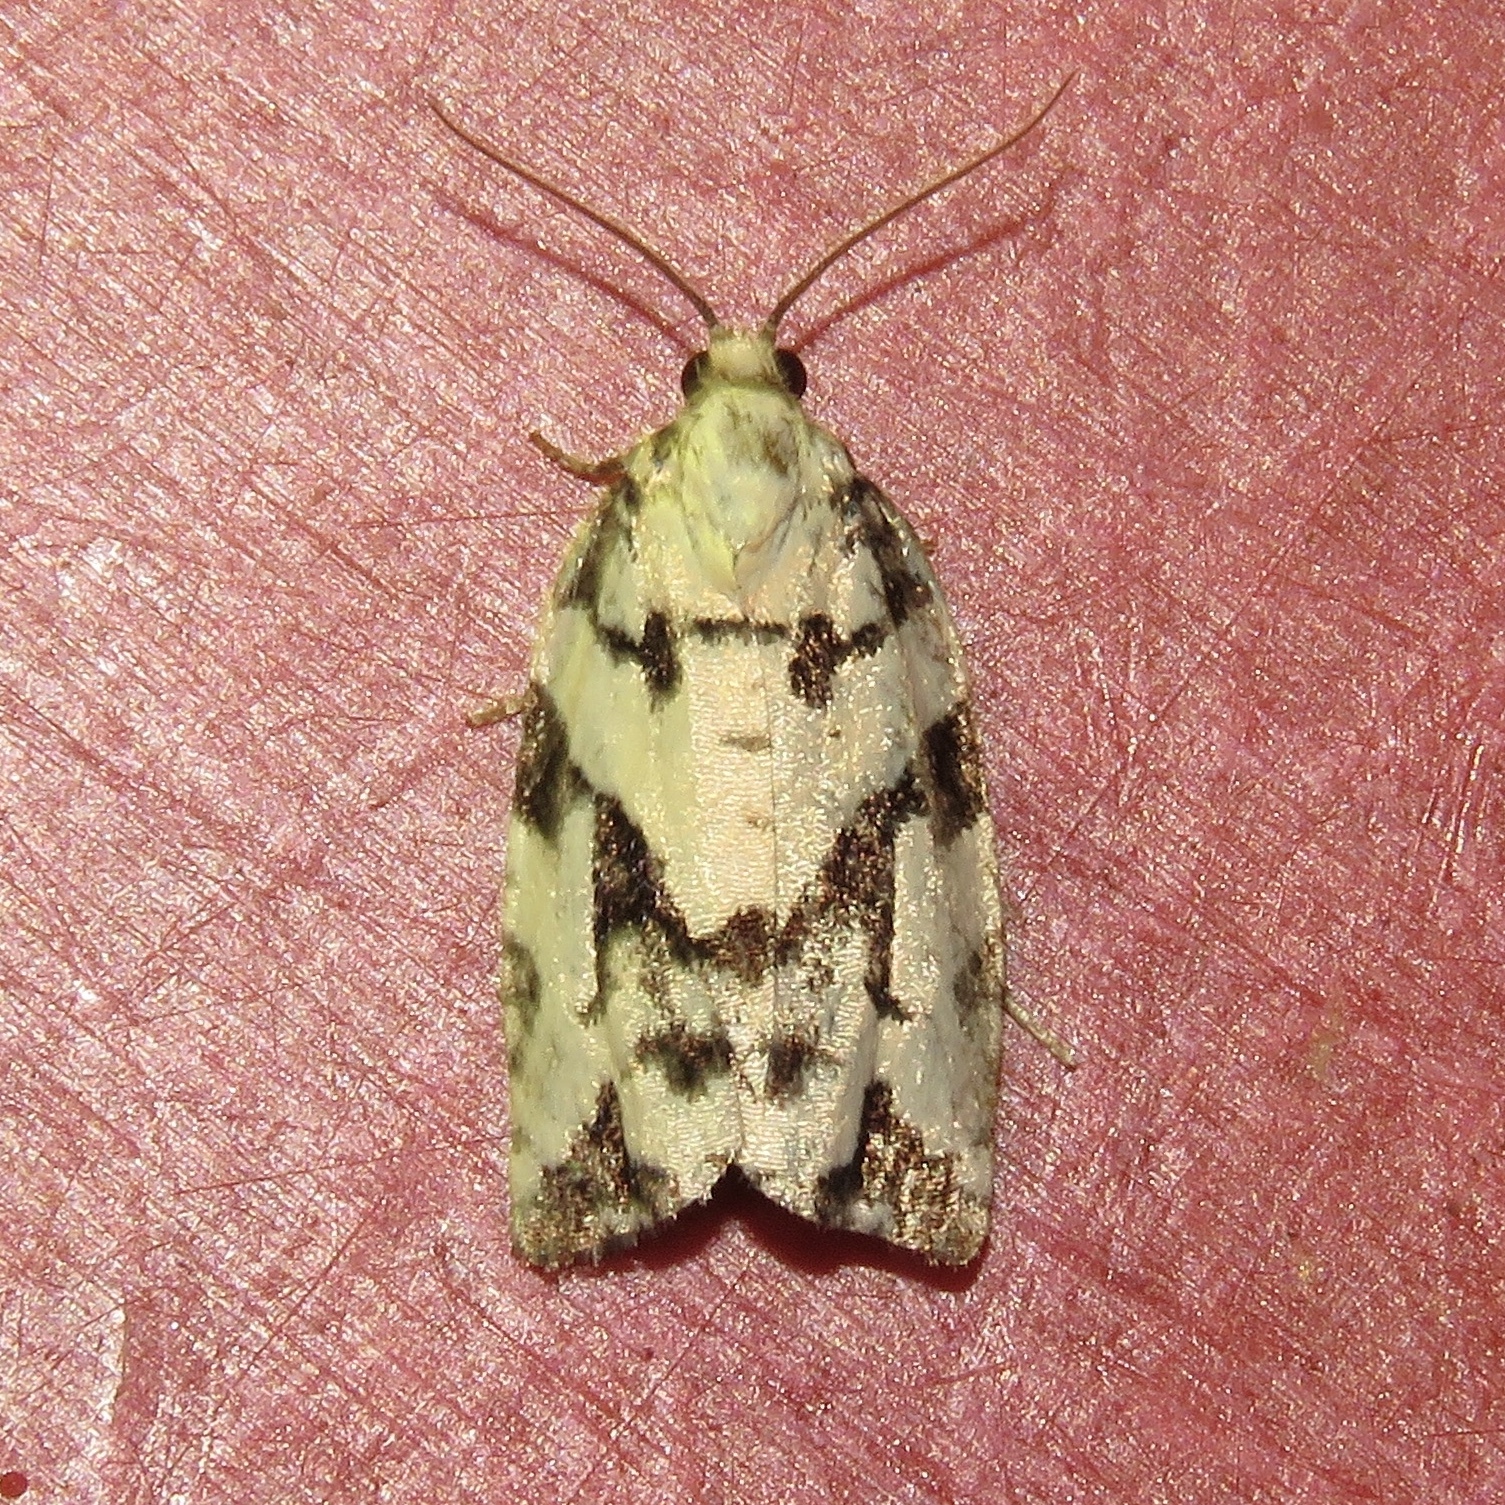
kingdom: Animalia
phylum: Arthropoda
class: Insecta
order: Lepidoptera
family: Tortricidae
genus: Archips
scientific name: Archips dissitana
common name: Boldly-marked archips moth
